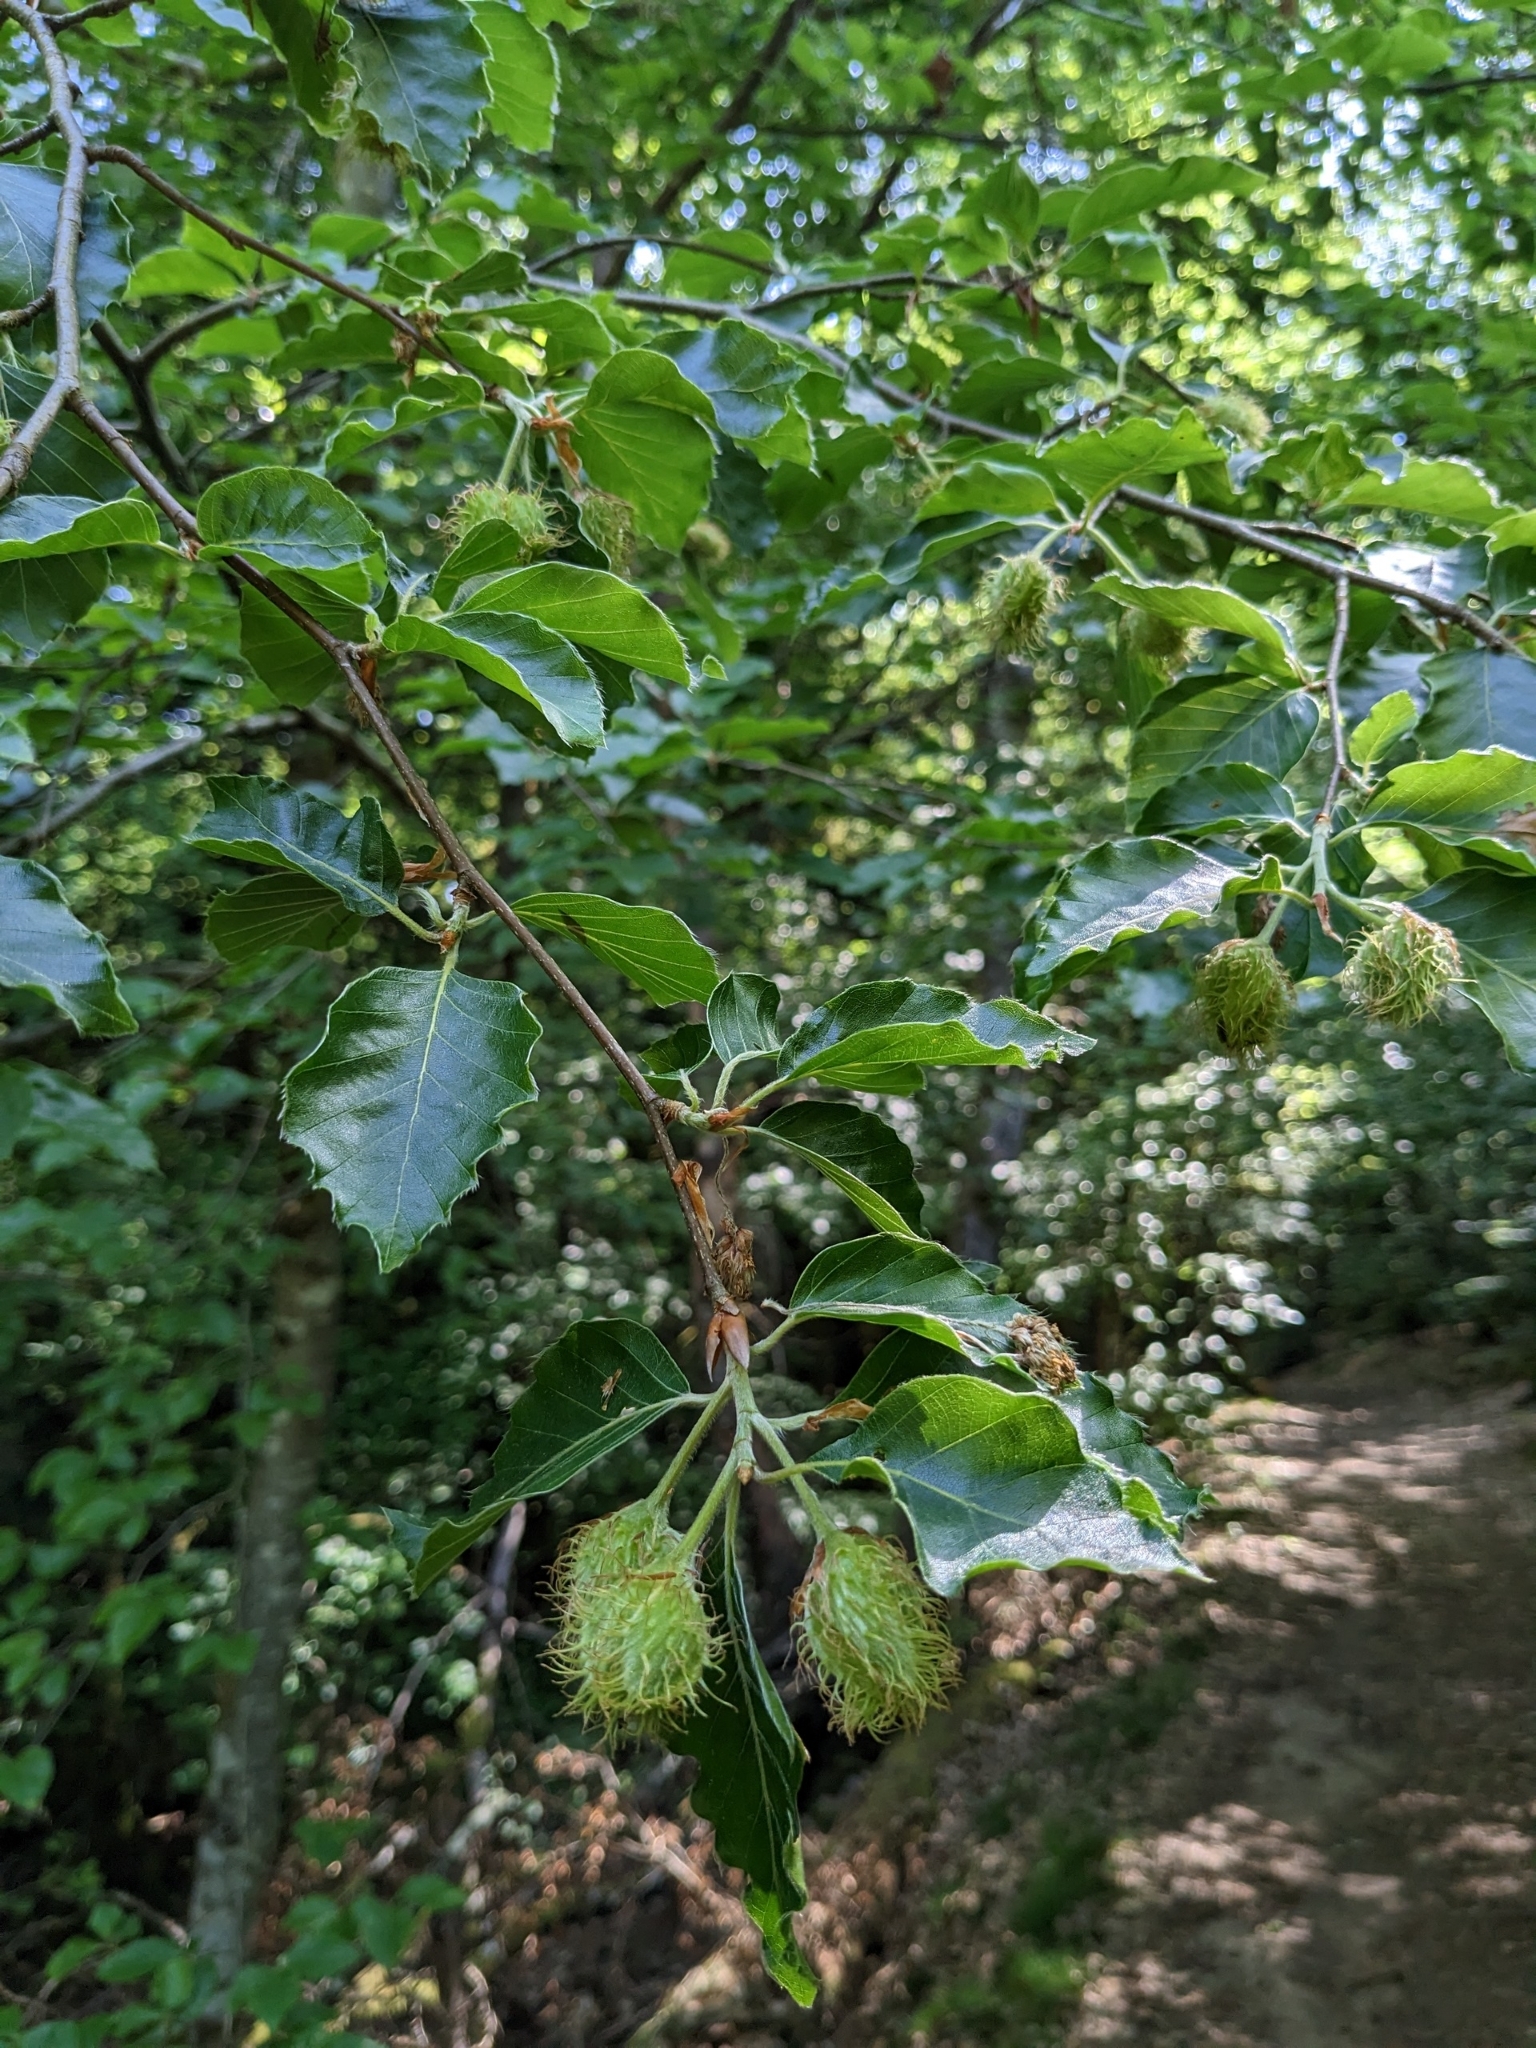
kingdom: Plantae
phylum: Tracheophyta
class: Magnoliopsida
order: Fagales
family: Fagaceae
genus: Fagus
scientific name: Fagus sylvatica
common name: Beech
